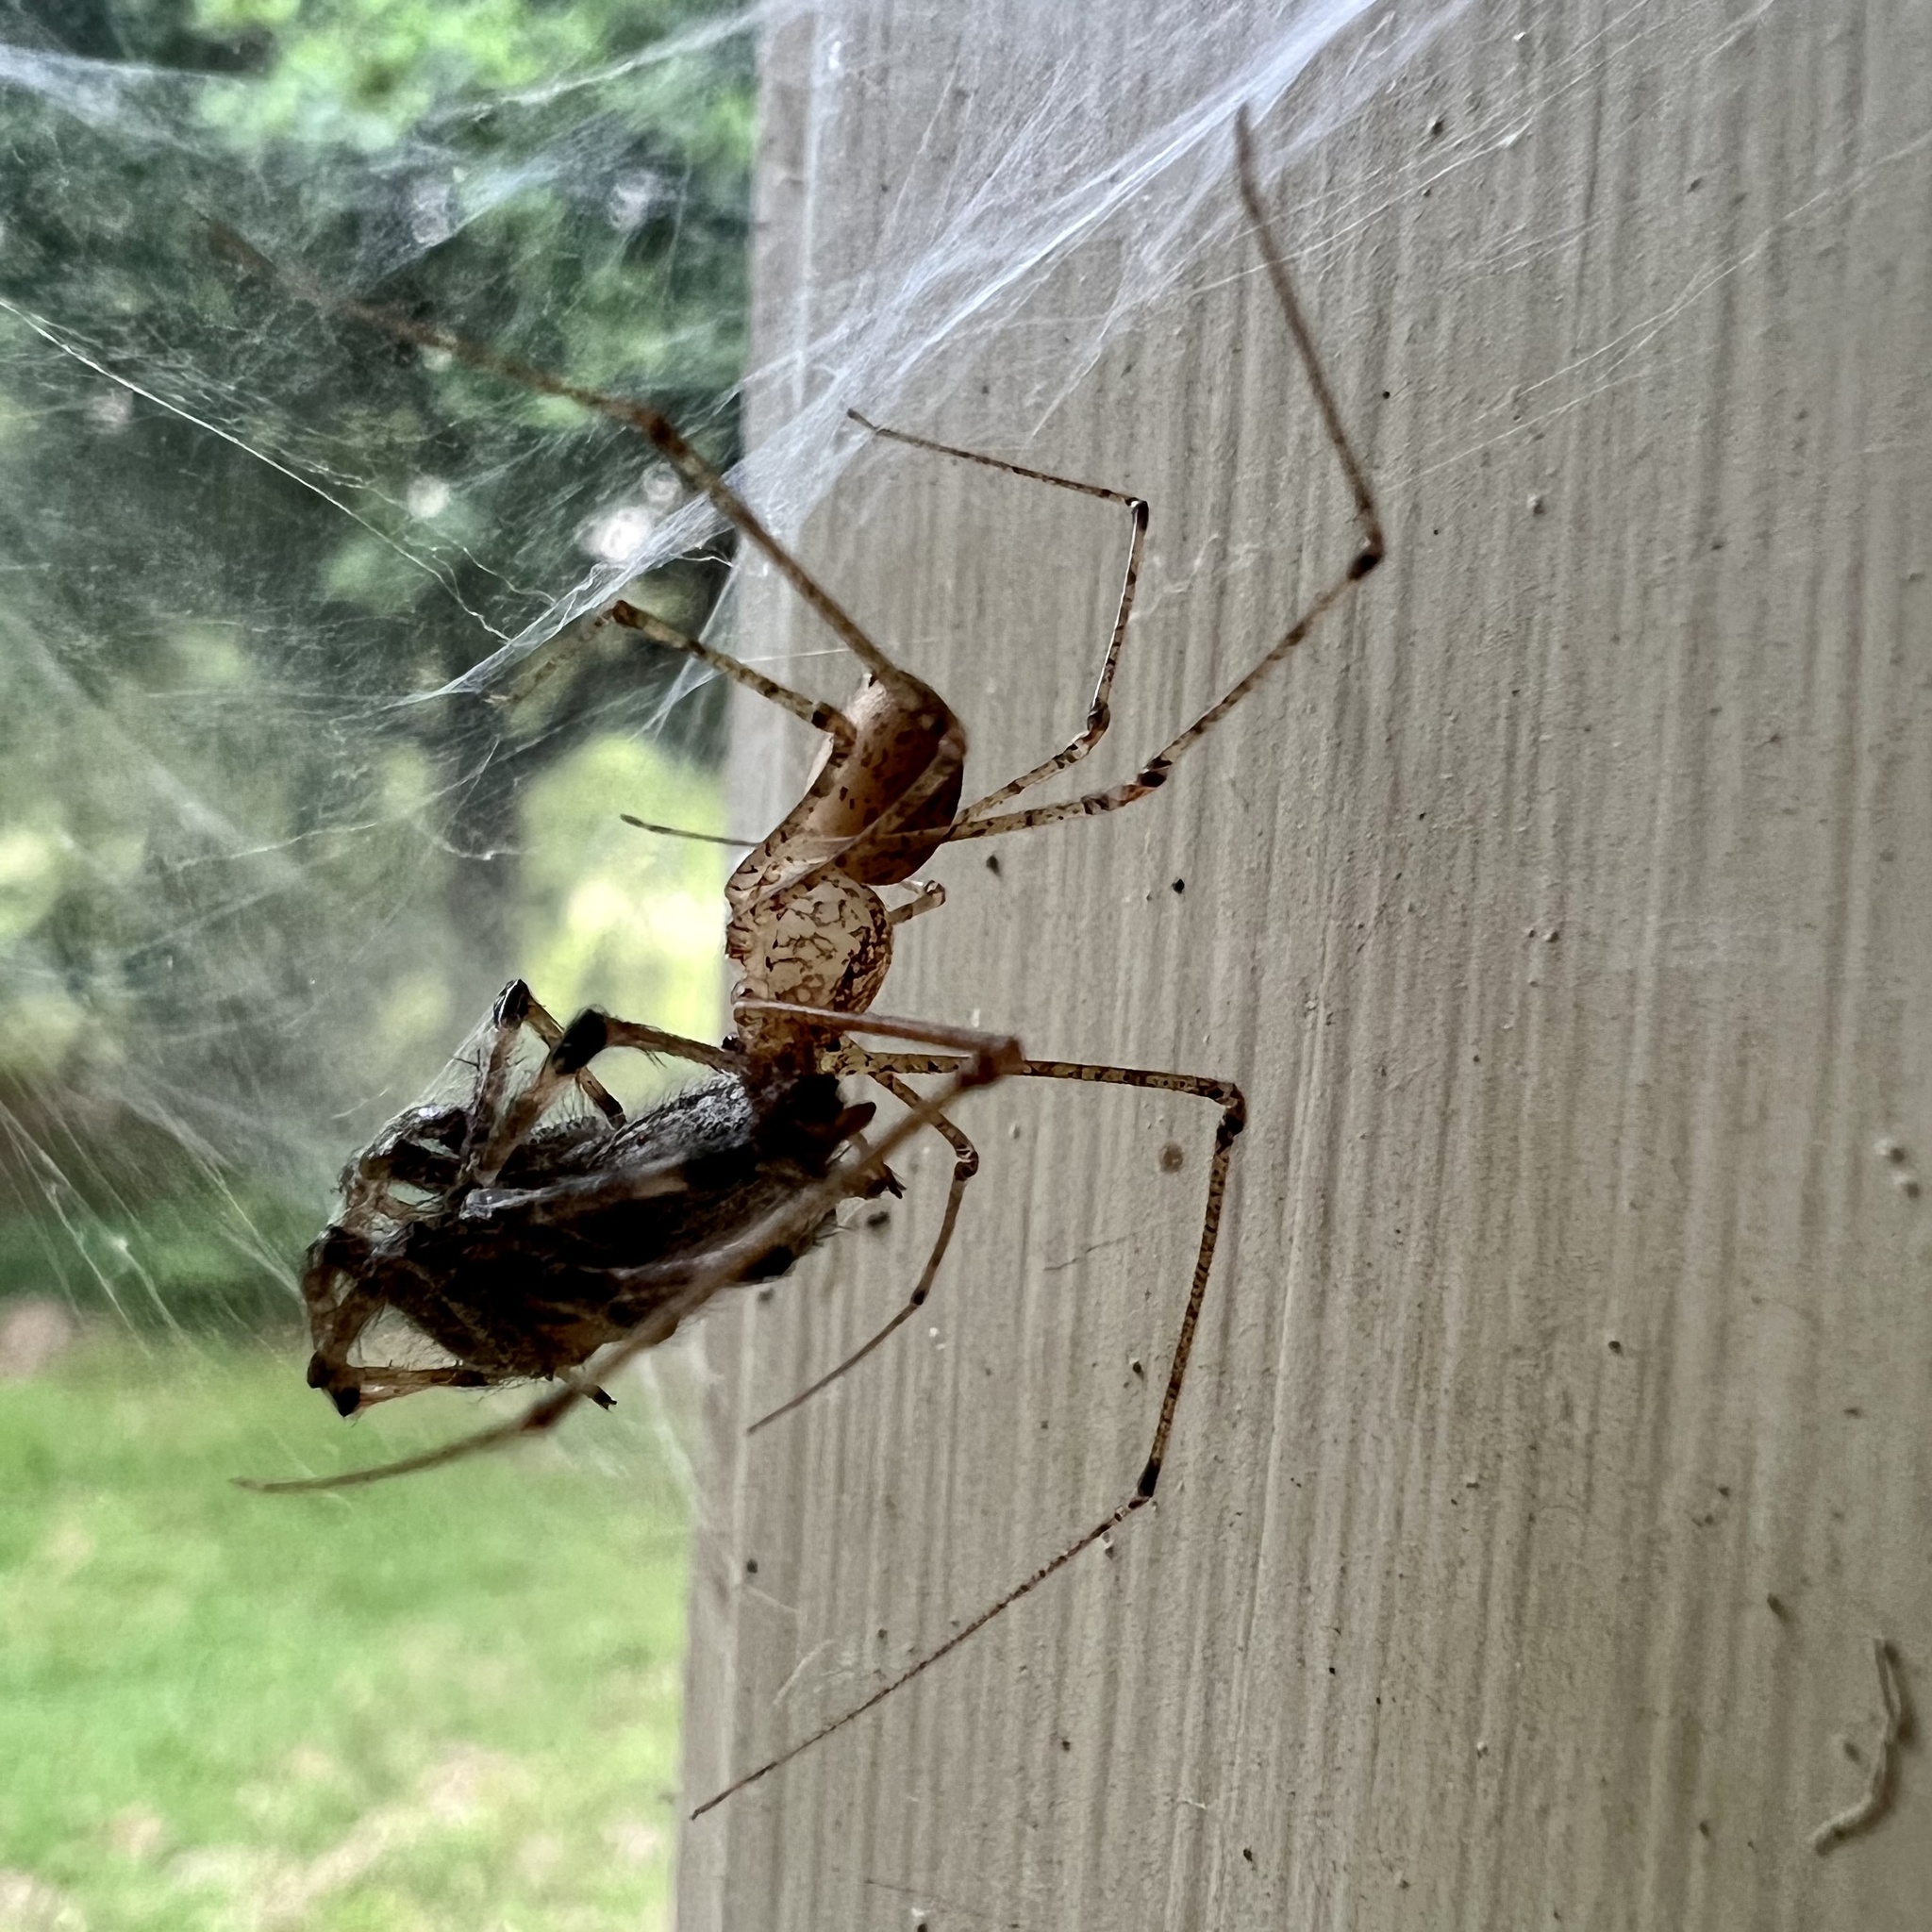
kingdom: Animalia
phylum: Arthropoda
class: Arachnida
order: Araneae
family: Scytodidae
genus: Scytodes
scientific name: Scytodes atlacoya
